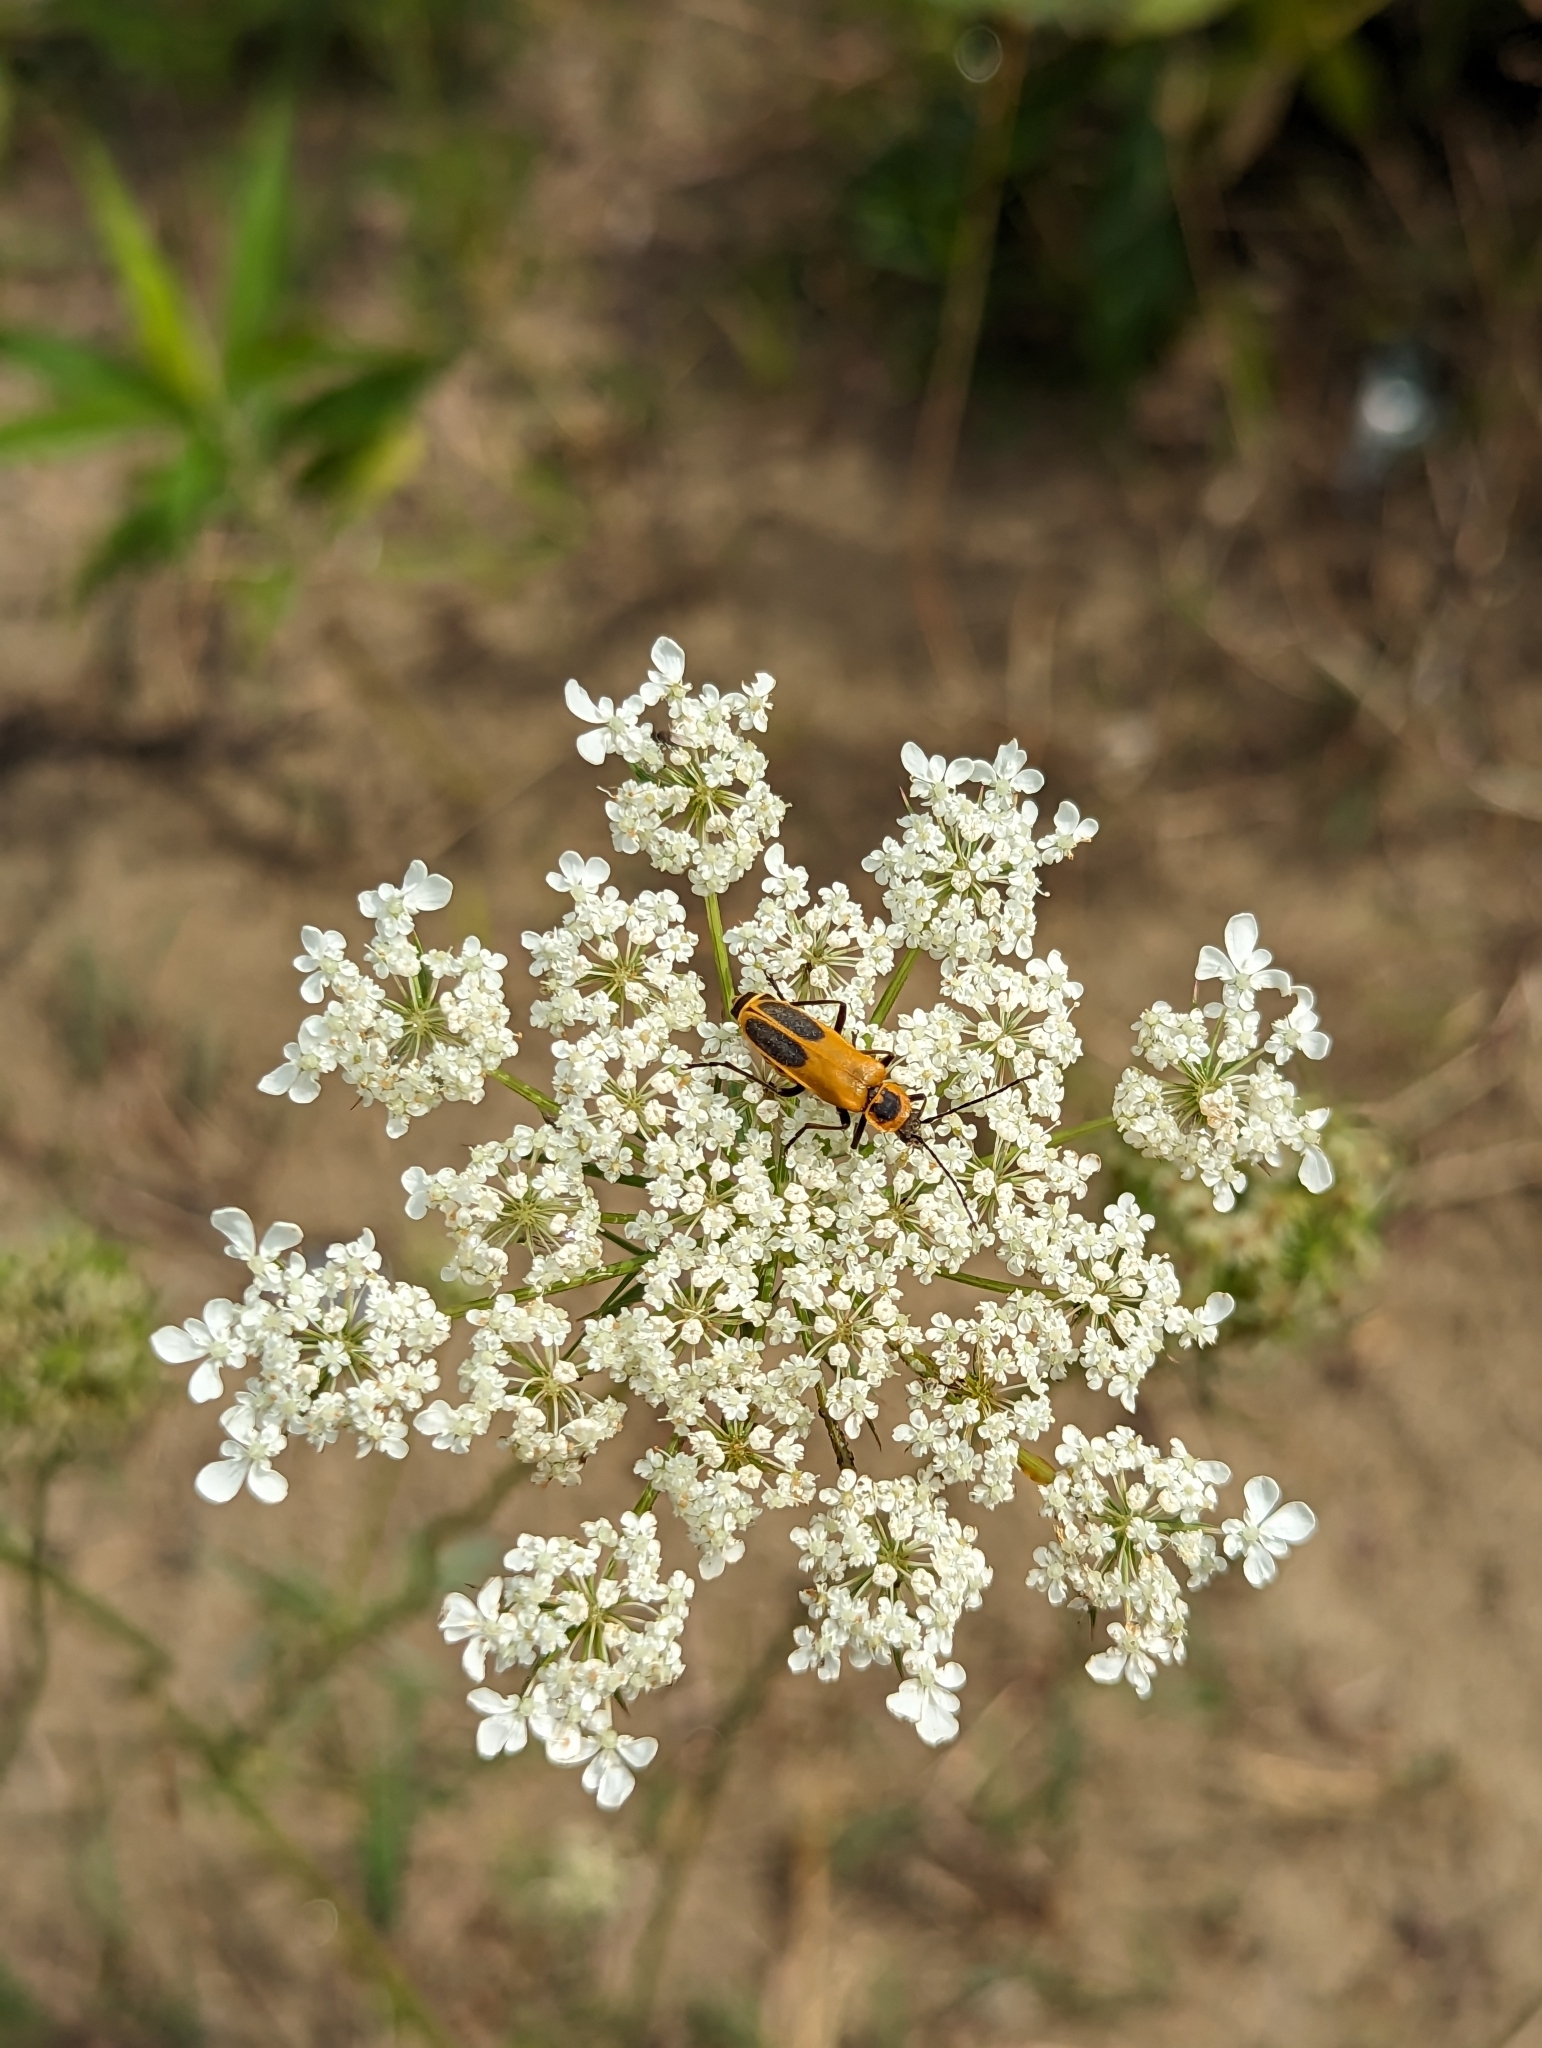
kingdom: Animalia
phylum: Arthropoda
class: Insecta
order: Coleoptera
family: Cantharidae
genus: Chauliognathus
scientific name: Chauliognathus pensylvanicus
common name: Goldenrod soldier beetle
